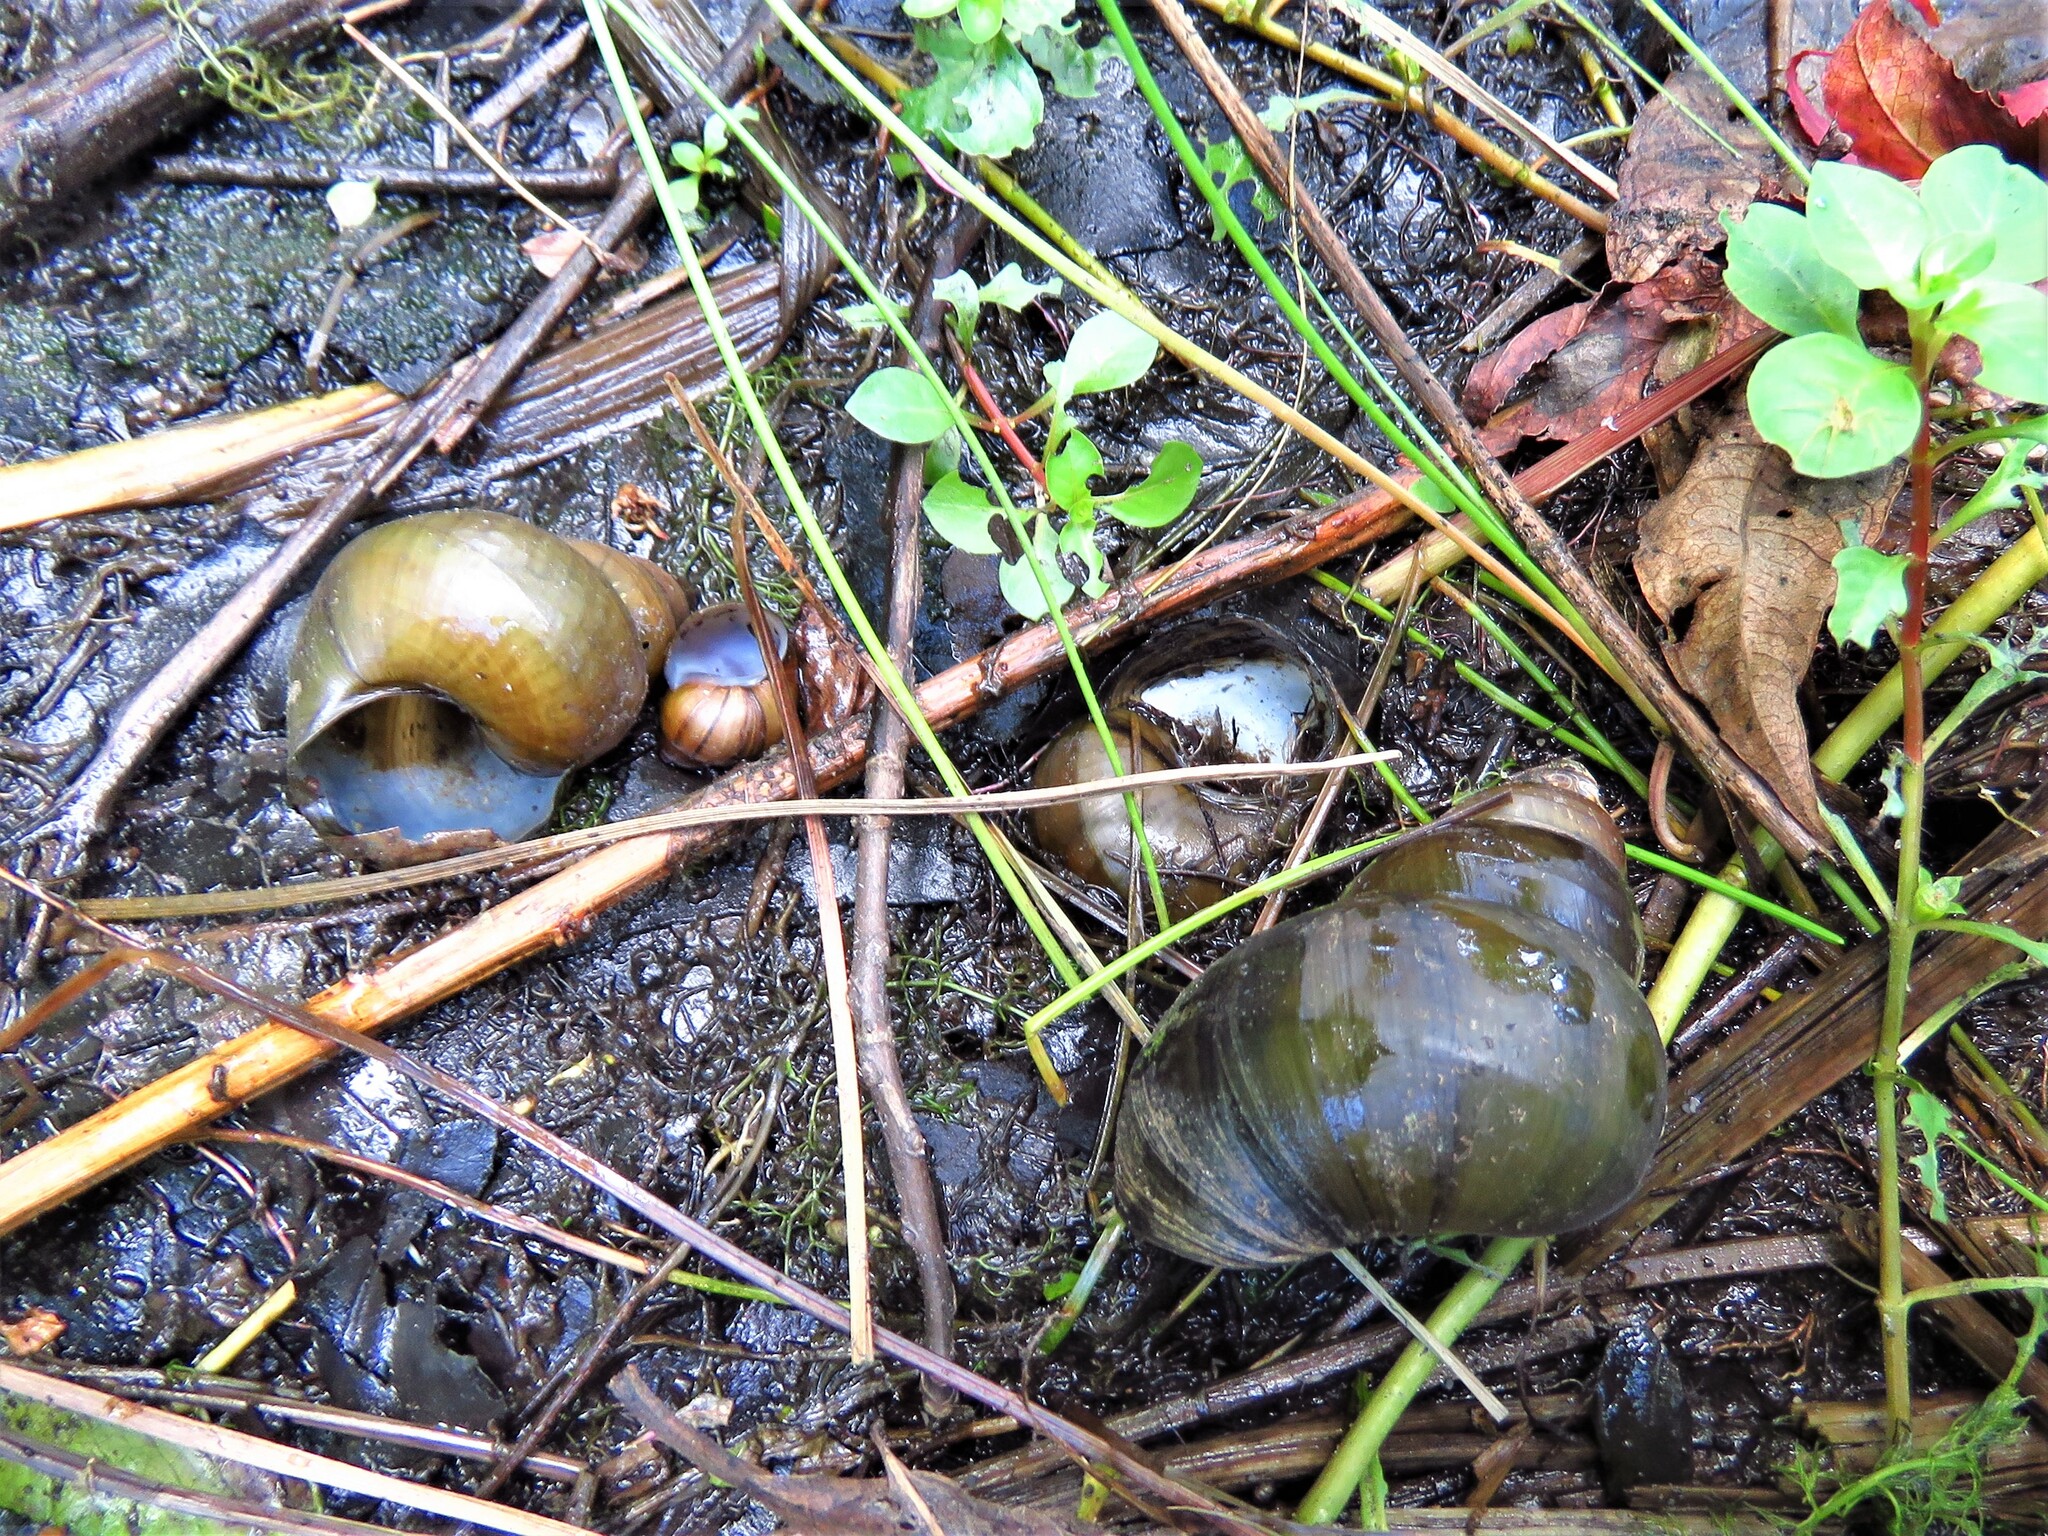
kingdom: Animalia
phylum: Mollusca
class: Gastropoda
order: Architaenioglossa
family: Viviparidae
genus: Cipangopaludina
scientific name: Cipangopaludina chinensis
